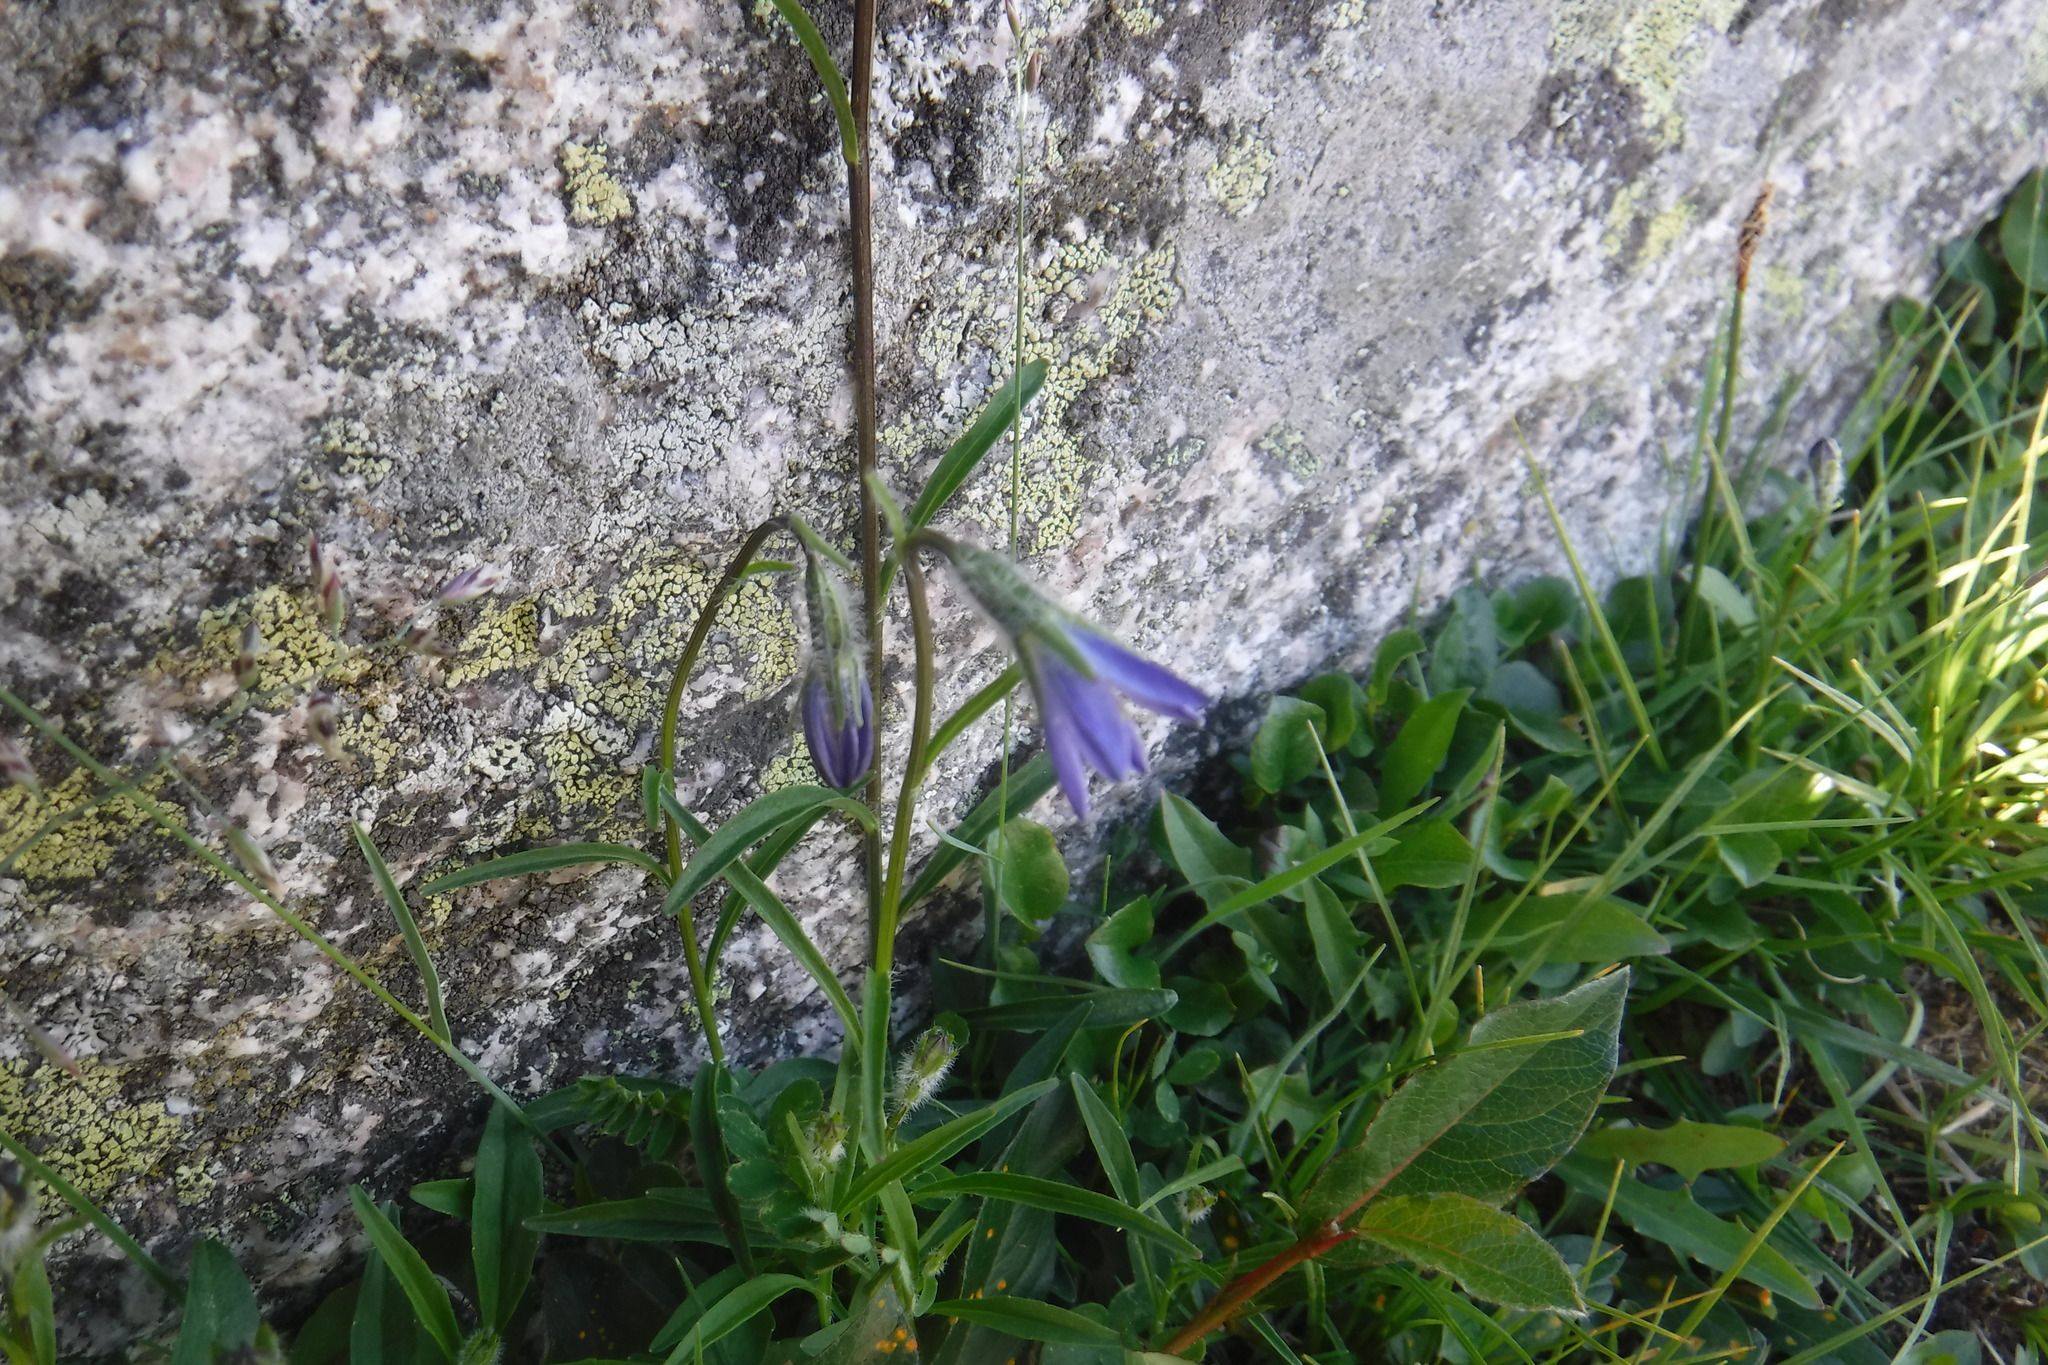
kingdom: Plantae
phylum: Tracheophyta
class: Magnoliopsida
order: Asterales
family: Campanulaceae
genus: Campanula
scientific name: Campanula uniflora
